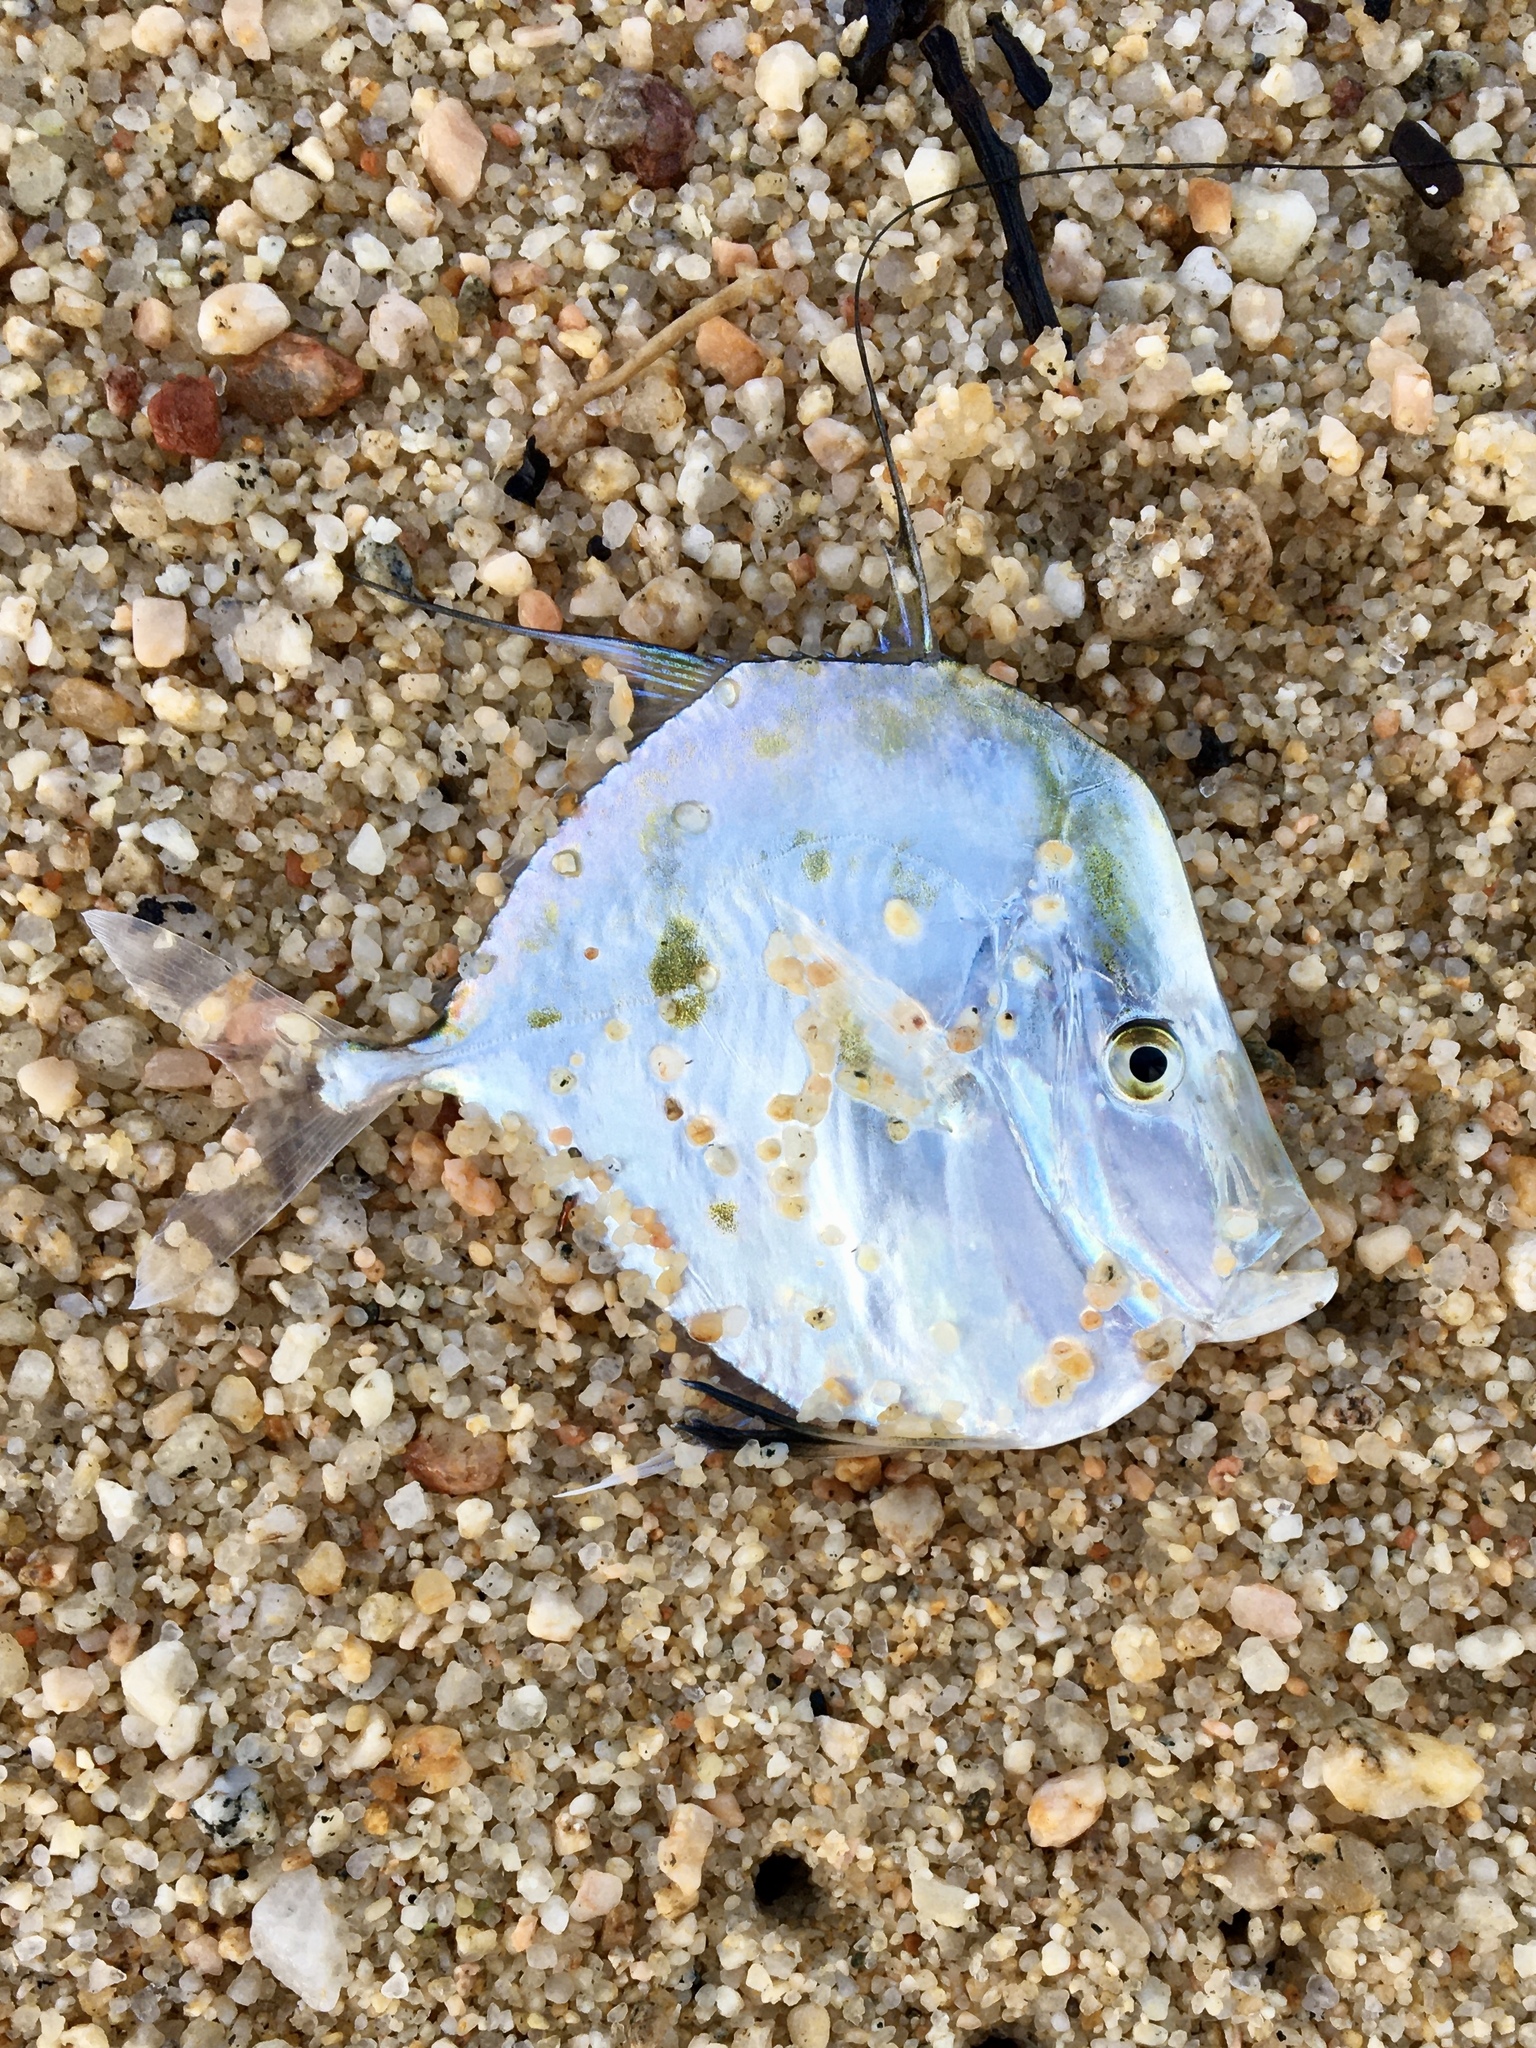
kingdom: Animalia
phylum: Chordata
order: Perciformes
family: Carangidae
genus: Paraselene
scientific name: Paraselene
